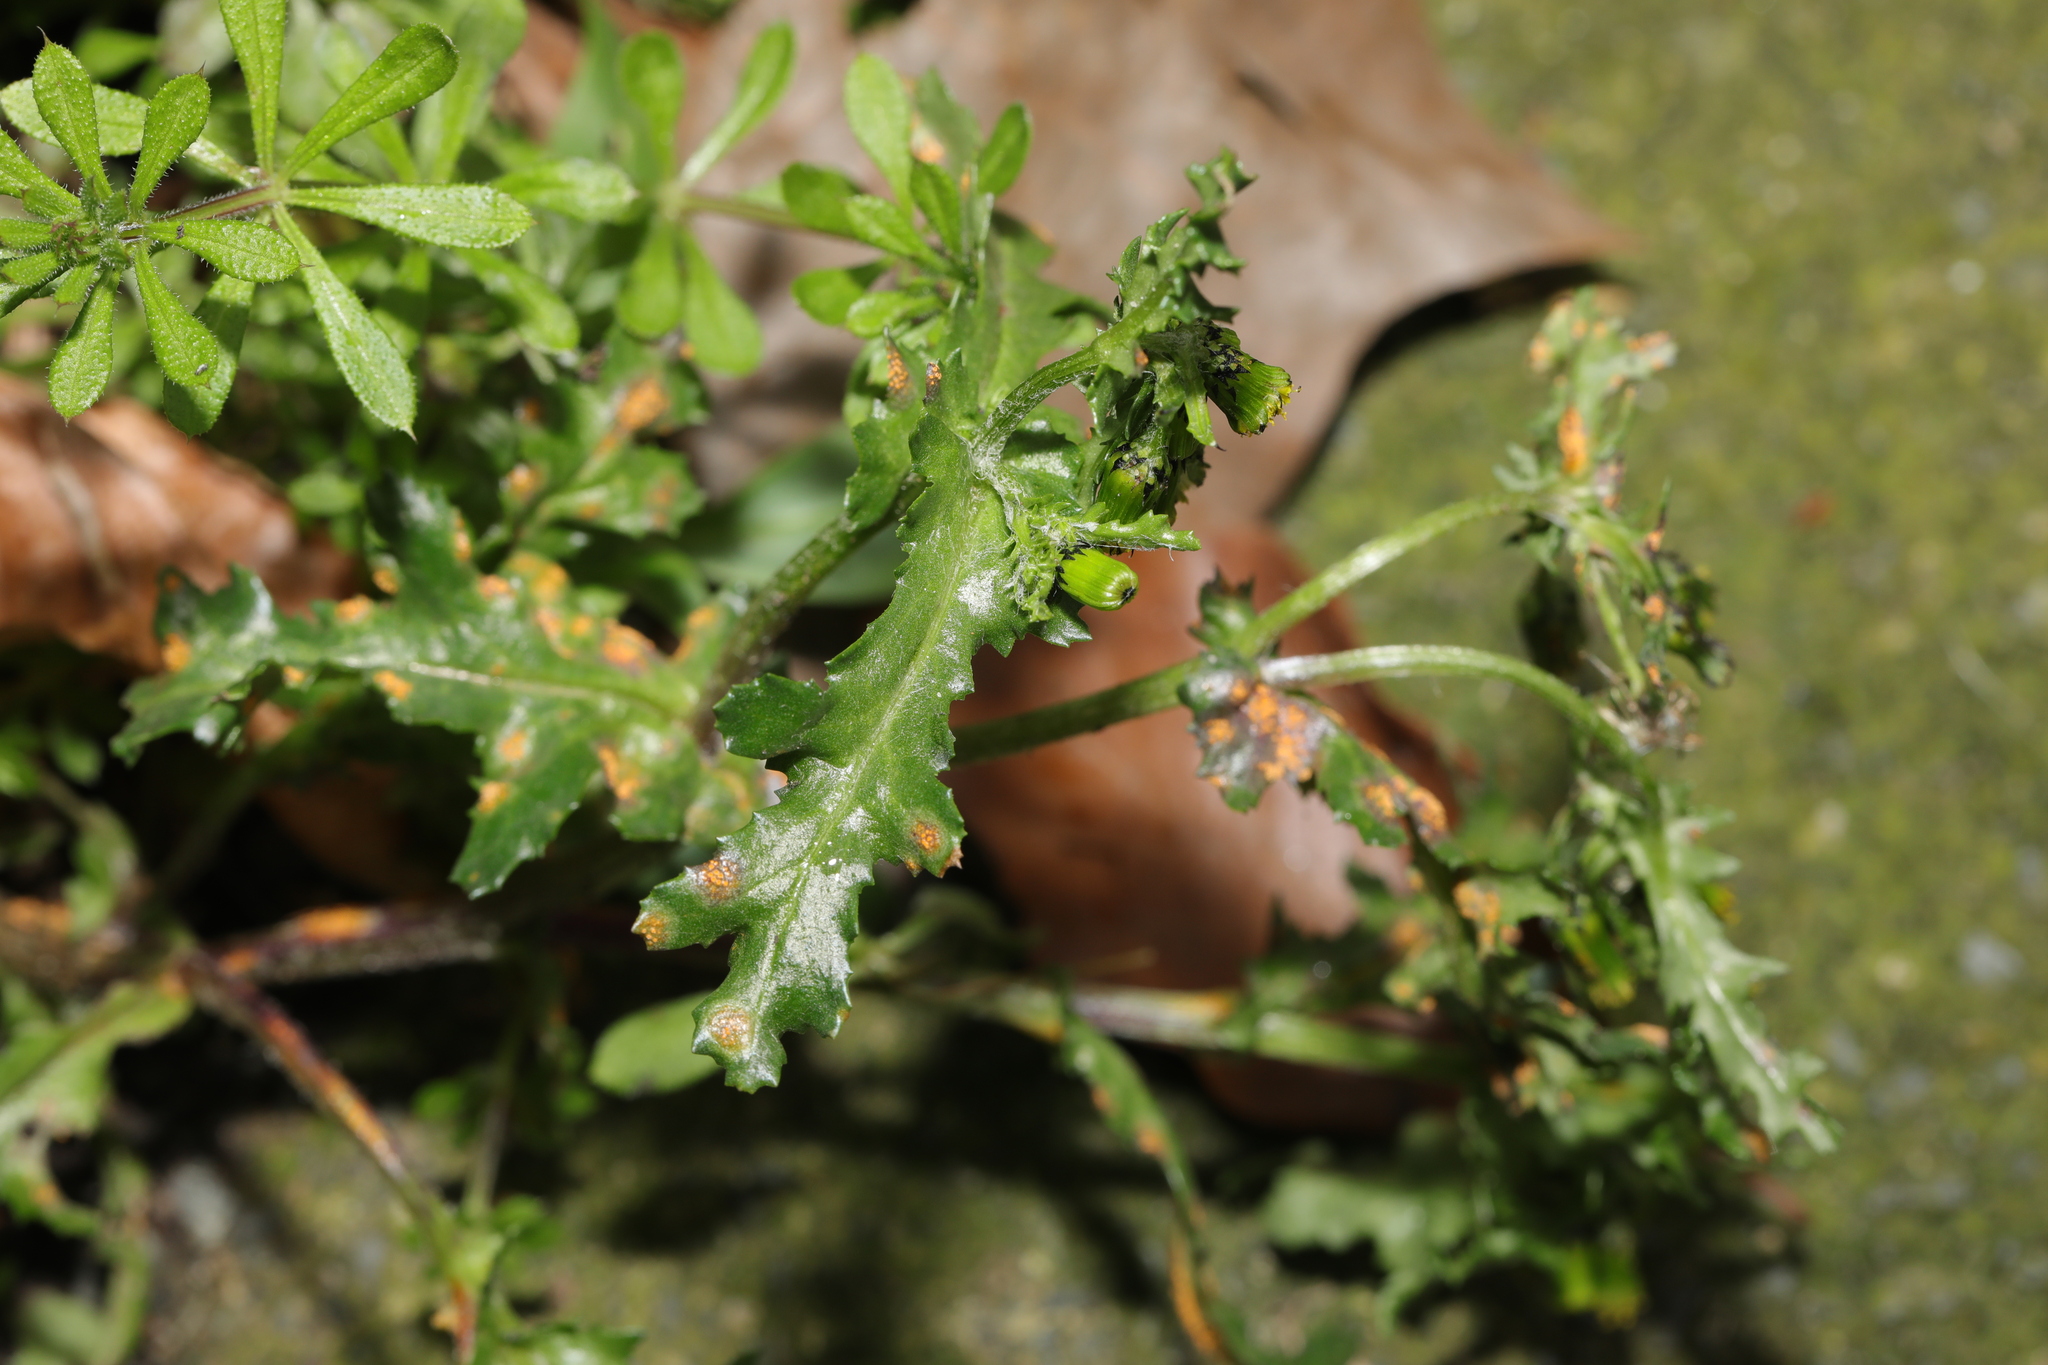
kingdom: Plantae
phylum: Tracheophyta
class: Magnoliopsida
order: Asterales
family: Asteraceae
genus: Senecio
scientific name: Senecio vulgaris
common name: Old-man-in-the-spring
